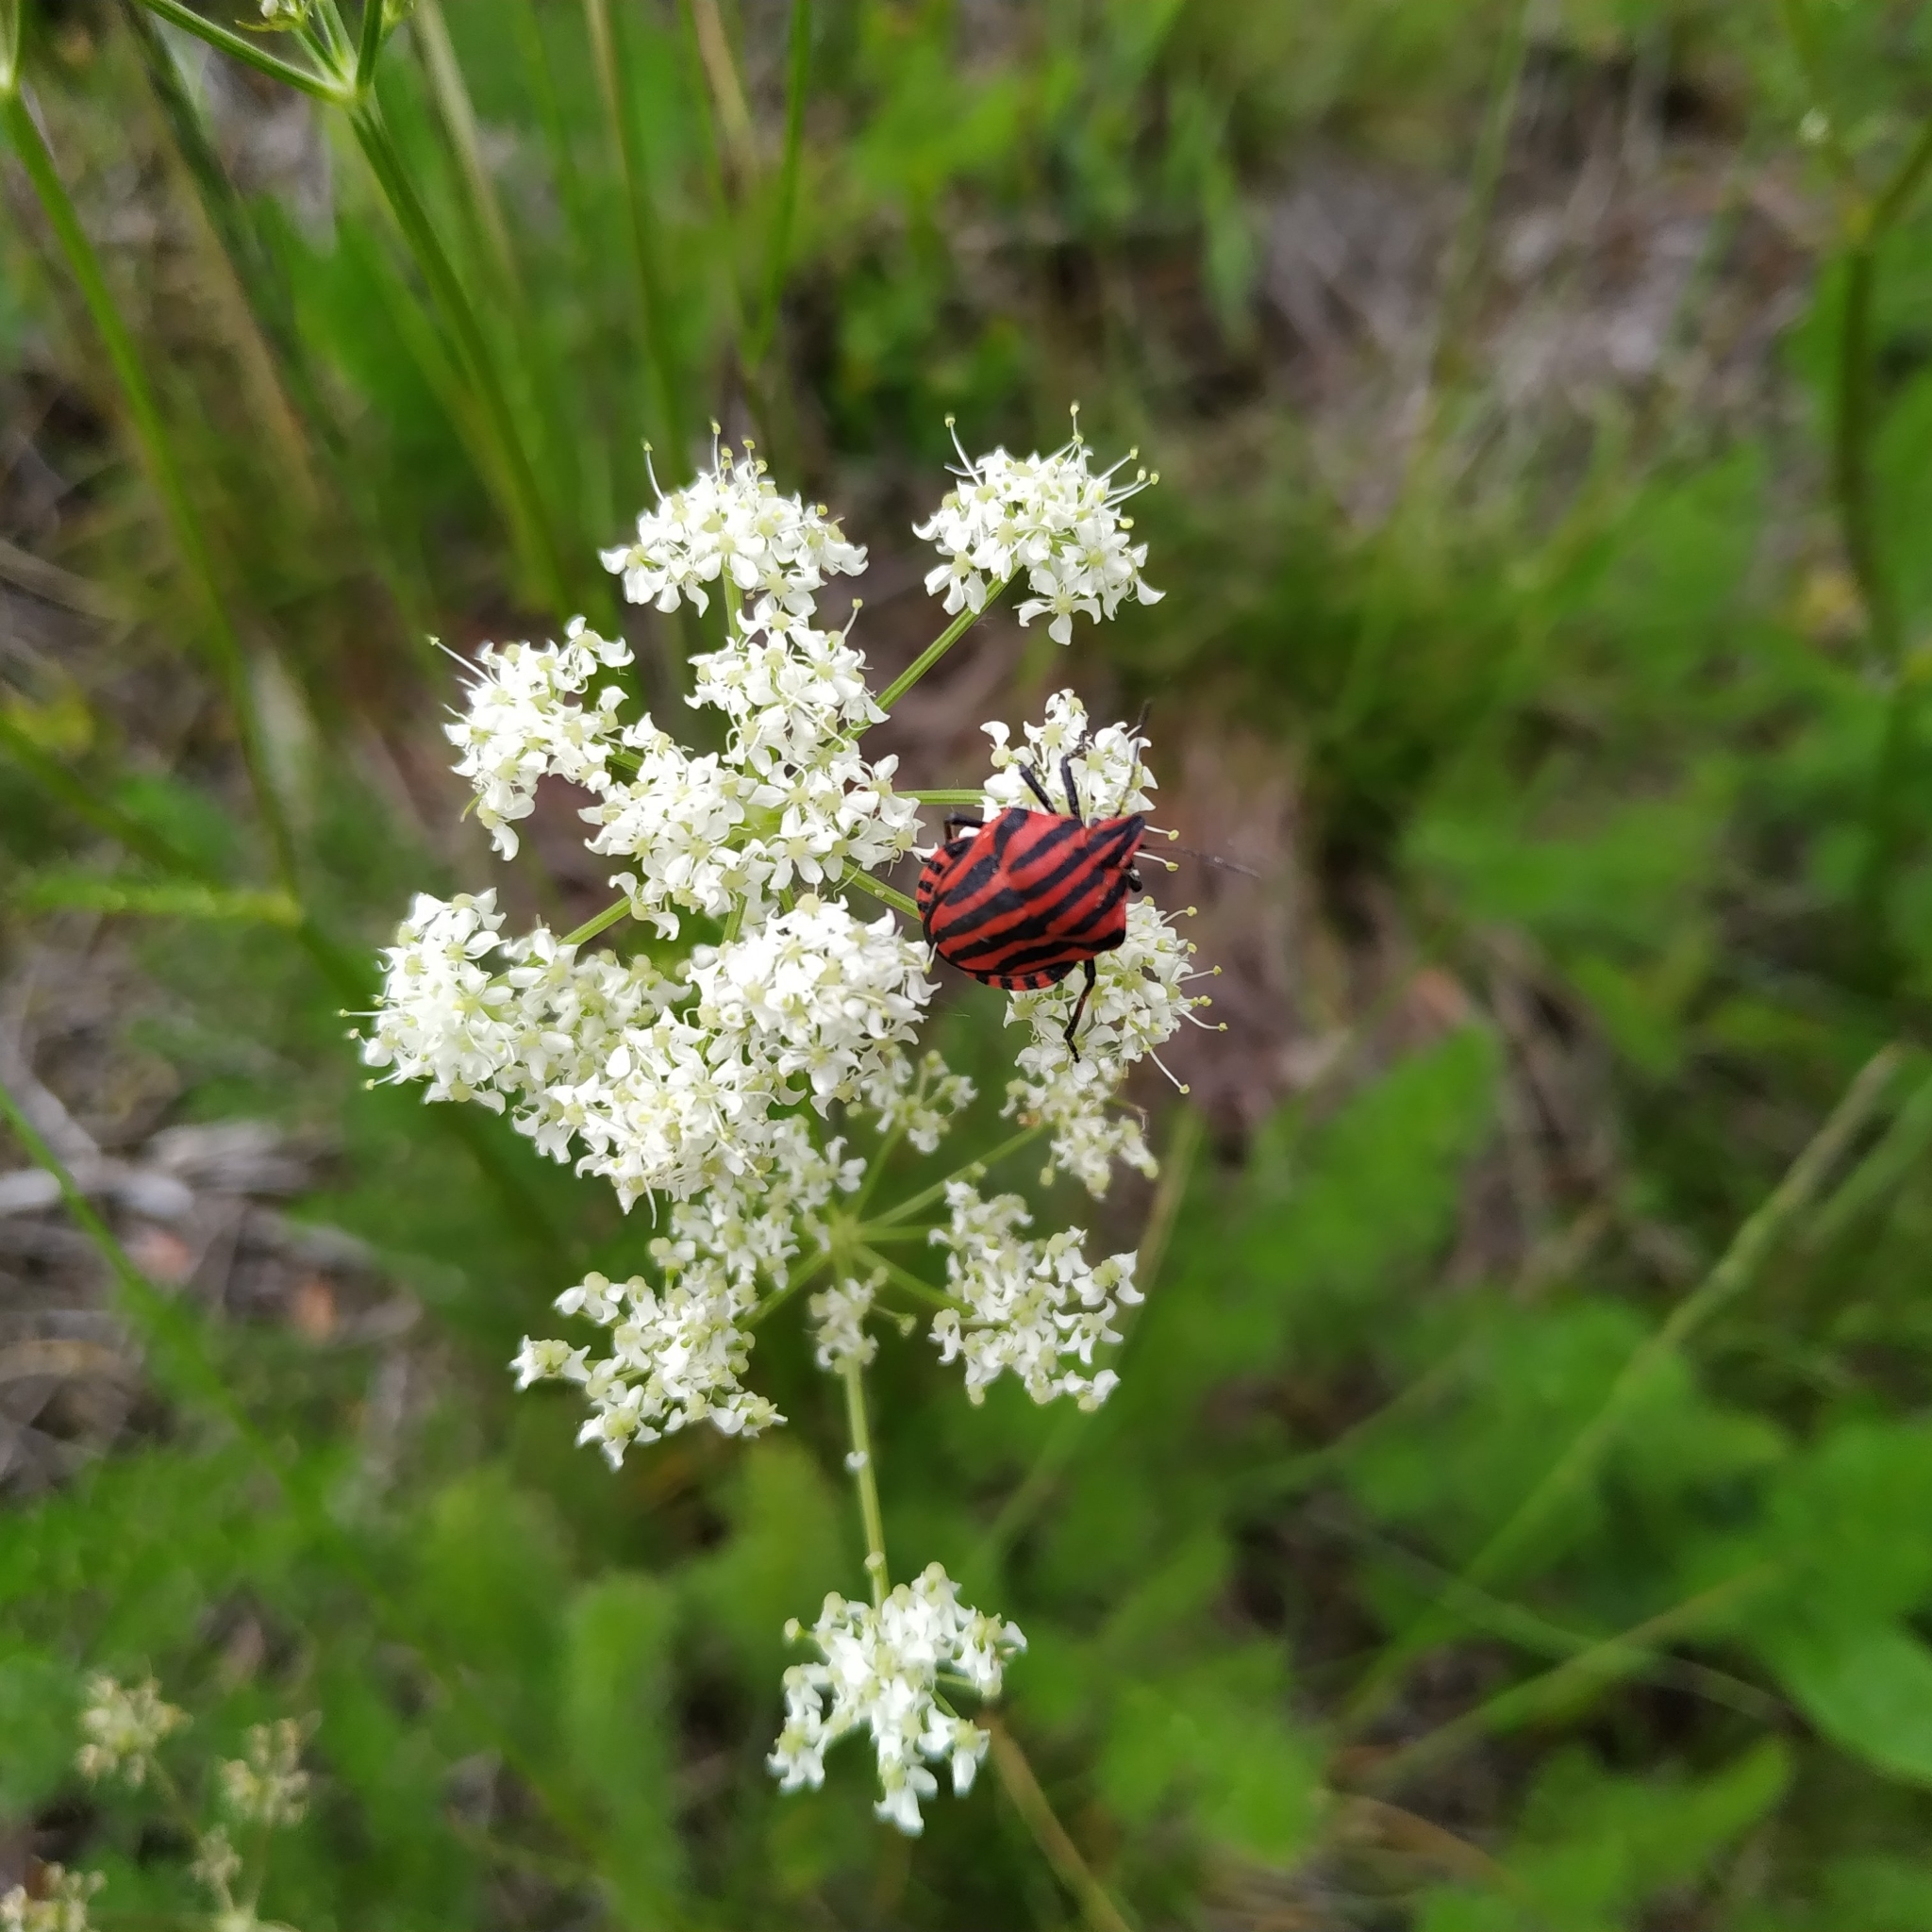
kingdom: Animalia
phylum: Arthropoda
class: Insecta
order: Hemiptera
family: Pentatomidae
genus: Graphosoma
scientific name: Graphosoma italicum
